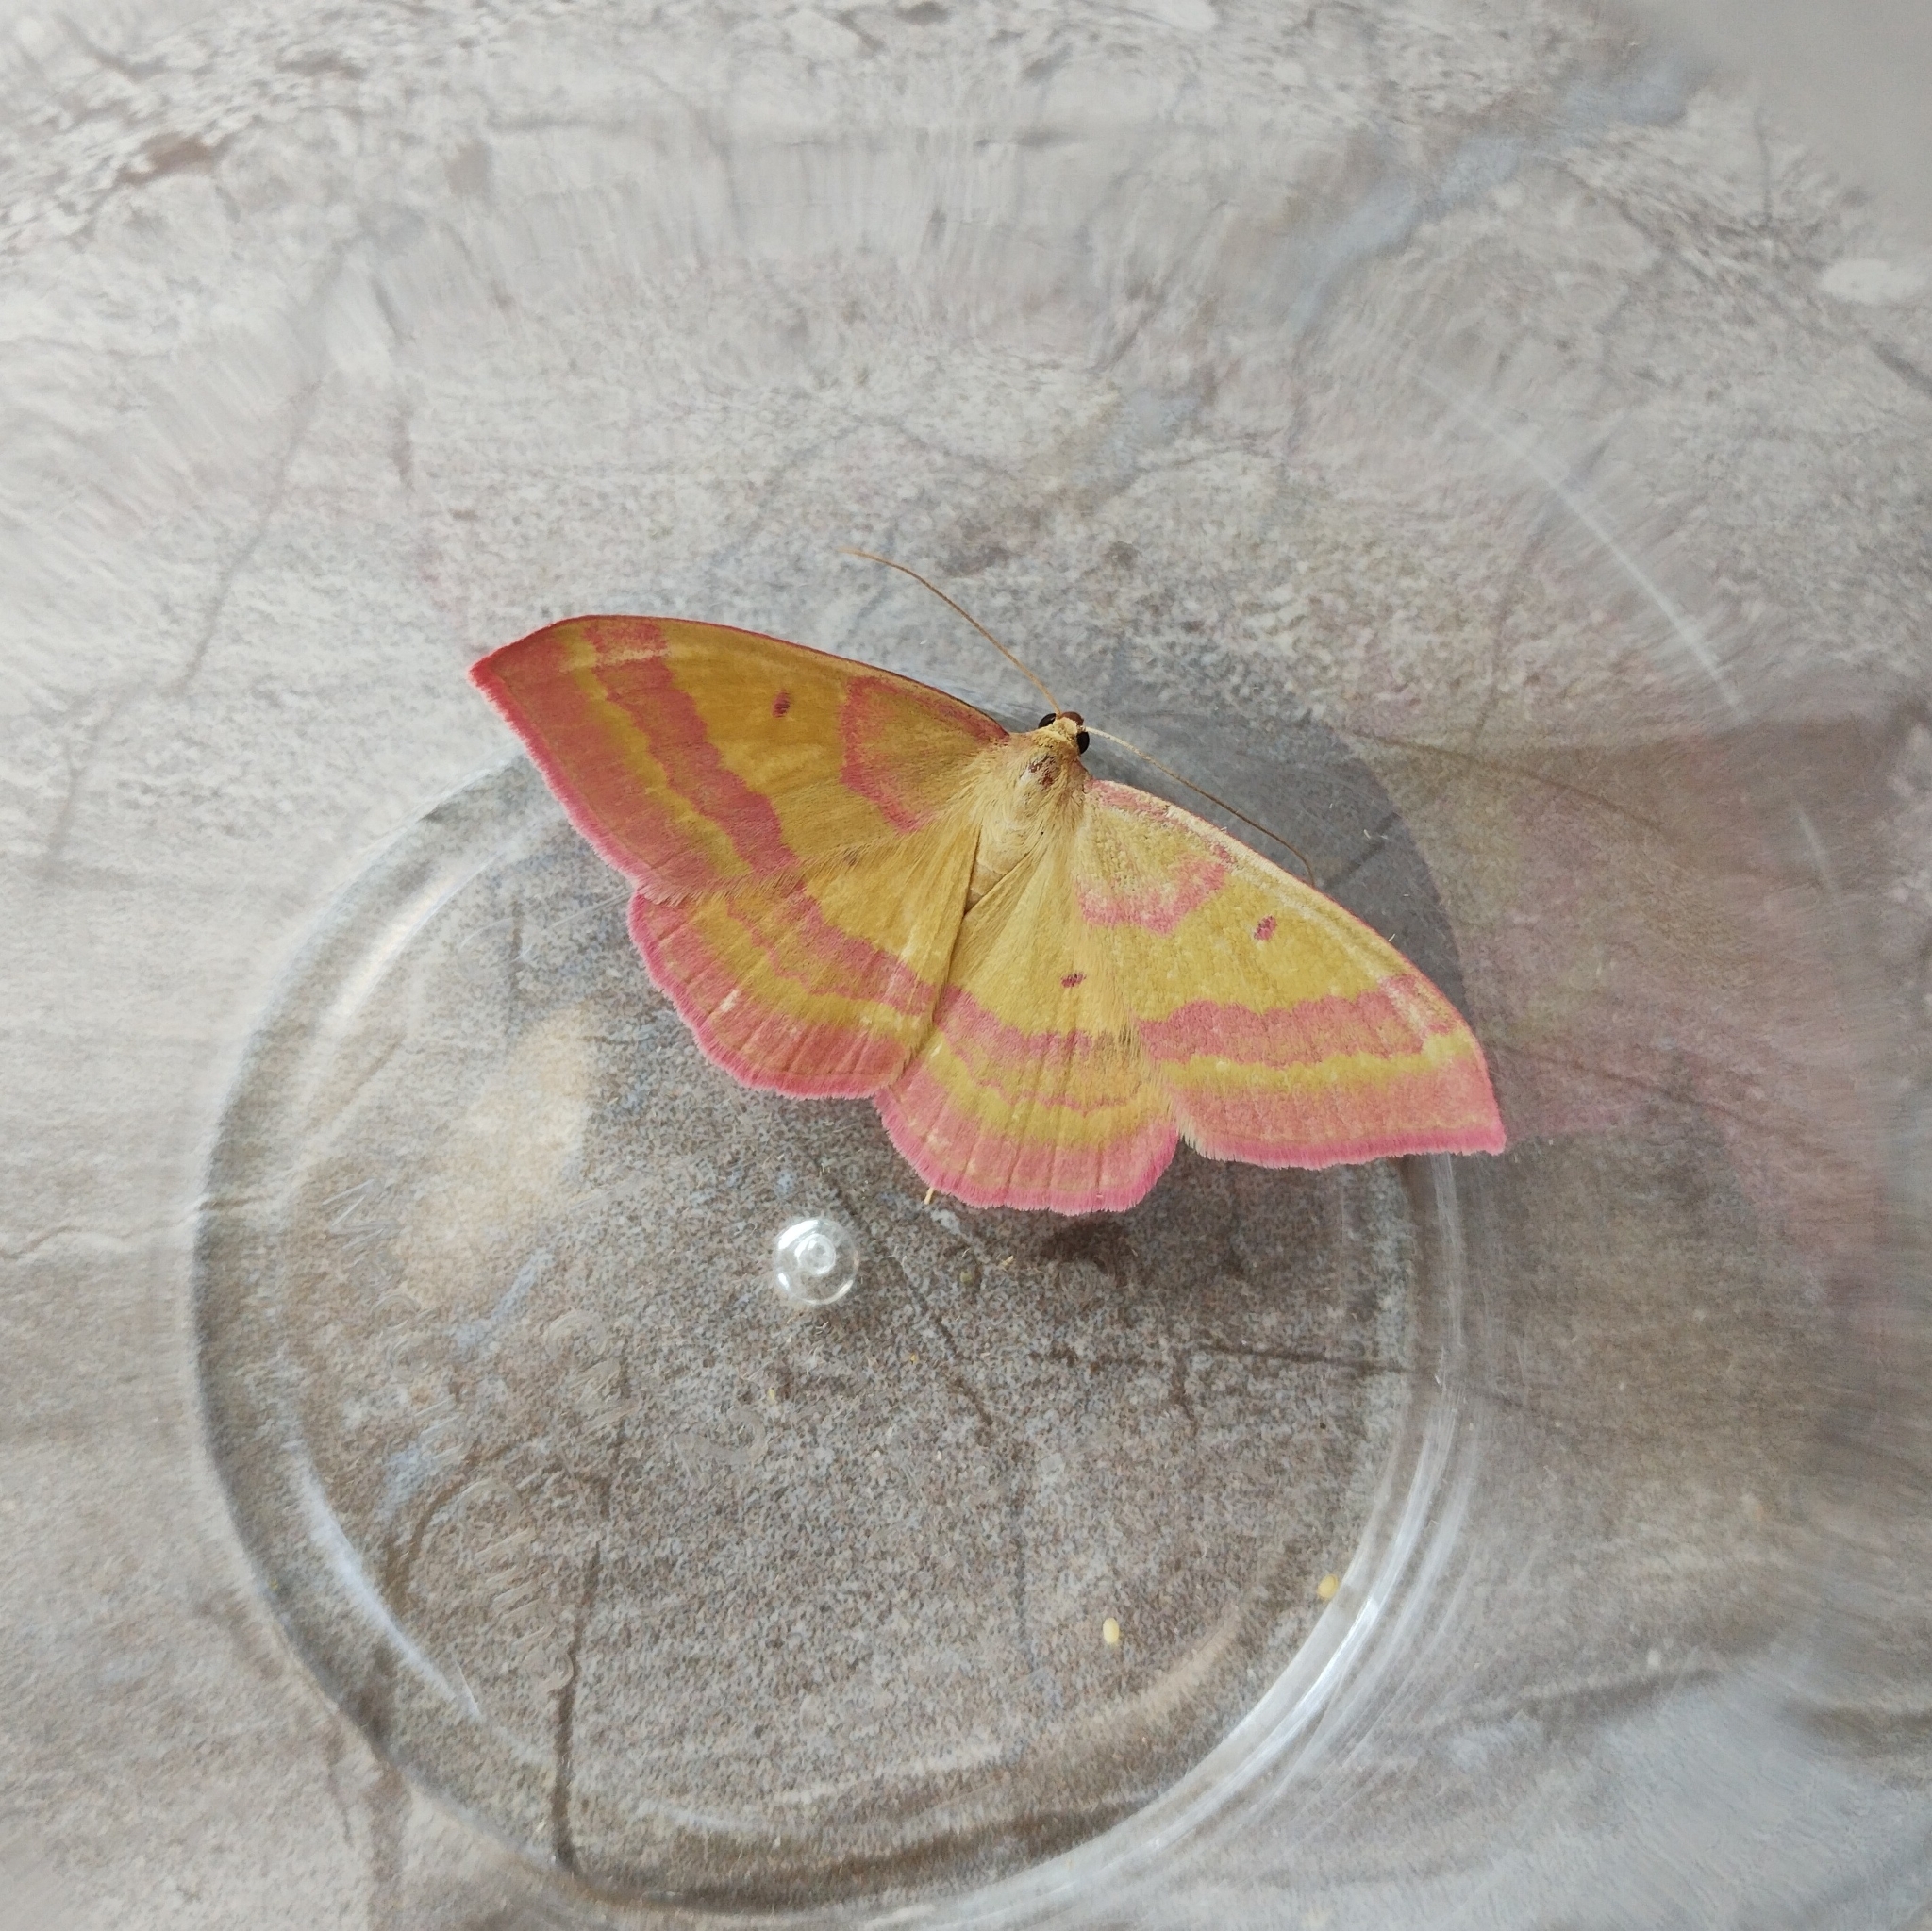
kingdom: Animalia
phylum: Arthropoda
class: Insecta
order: Lepidoptera
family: Geometridae
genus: Rhodostrophia
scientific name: Rhodostrophia tabidaria
